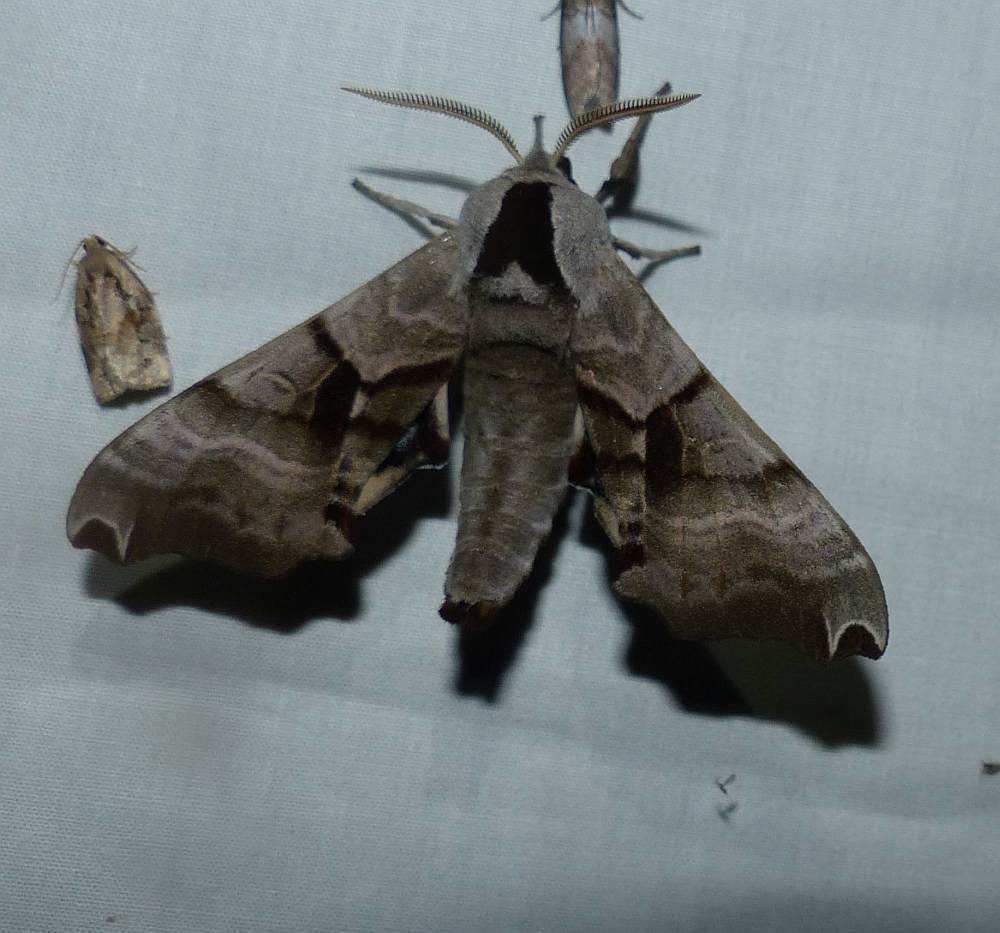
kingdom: Animalia
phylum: Arthropoda
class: Insecta
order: Lepidoptera
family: Sphingidae
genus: Smerinthus
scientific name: Smerinthus jamaicensis
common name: Twin spotted sphinx
